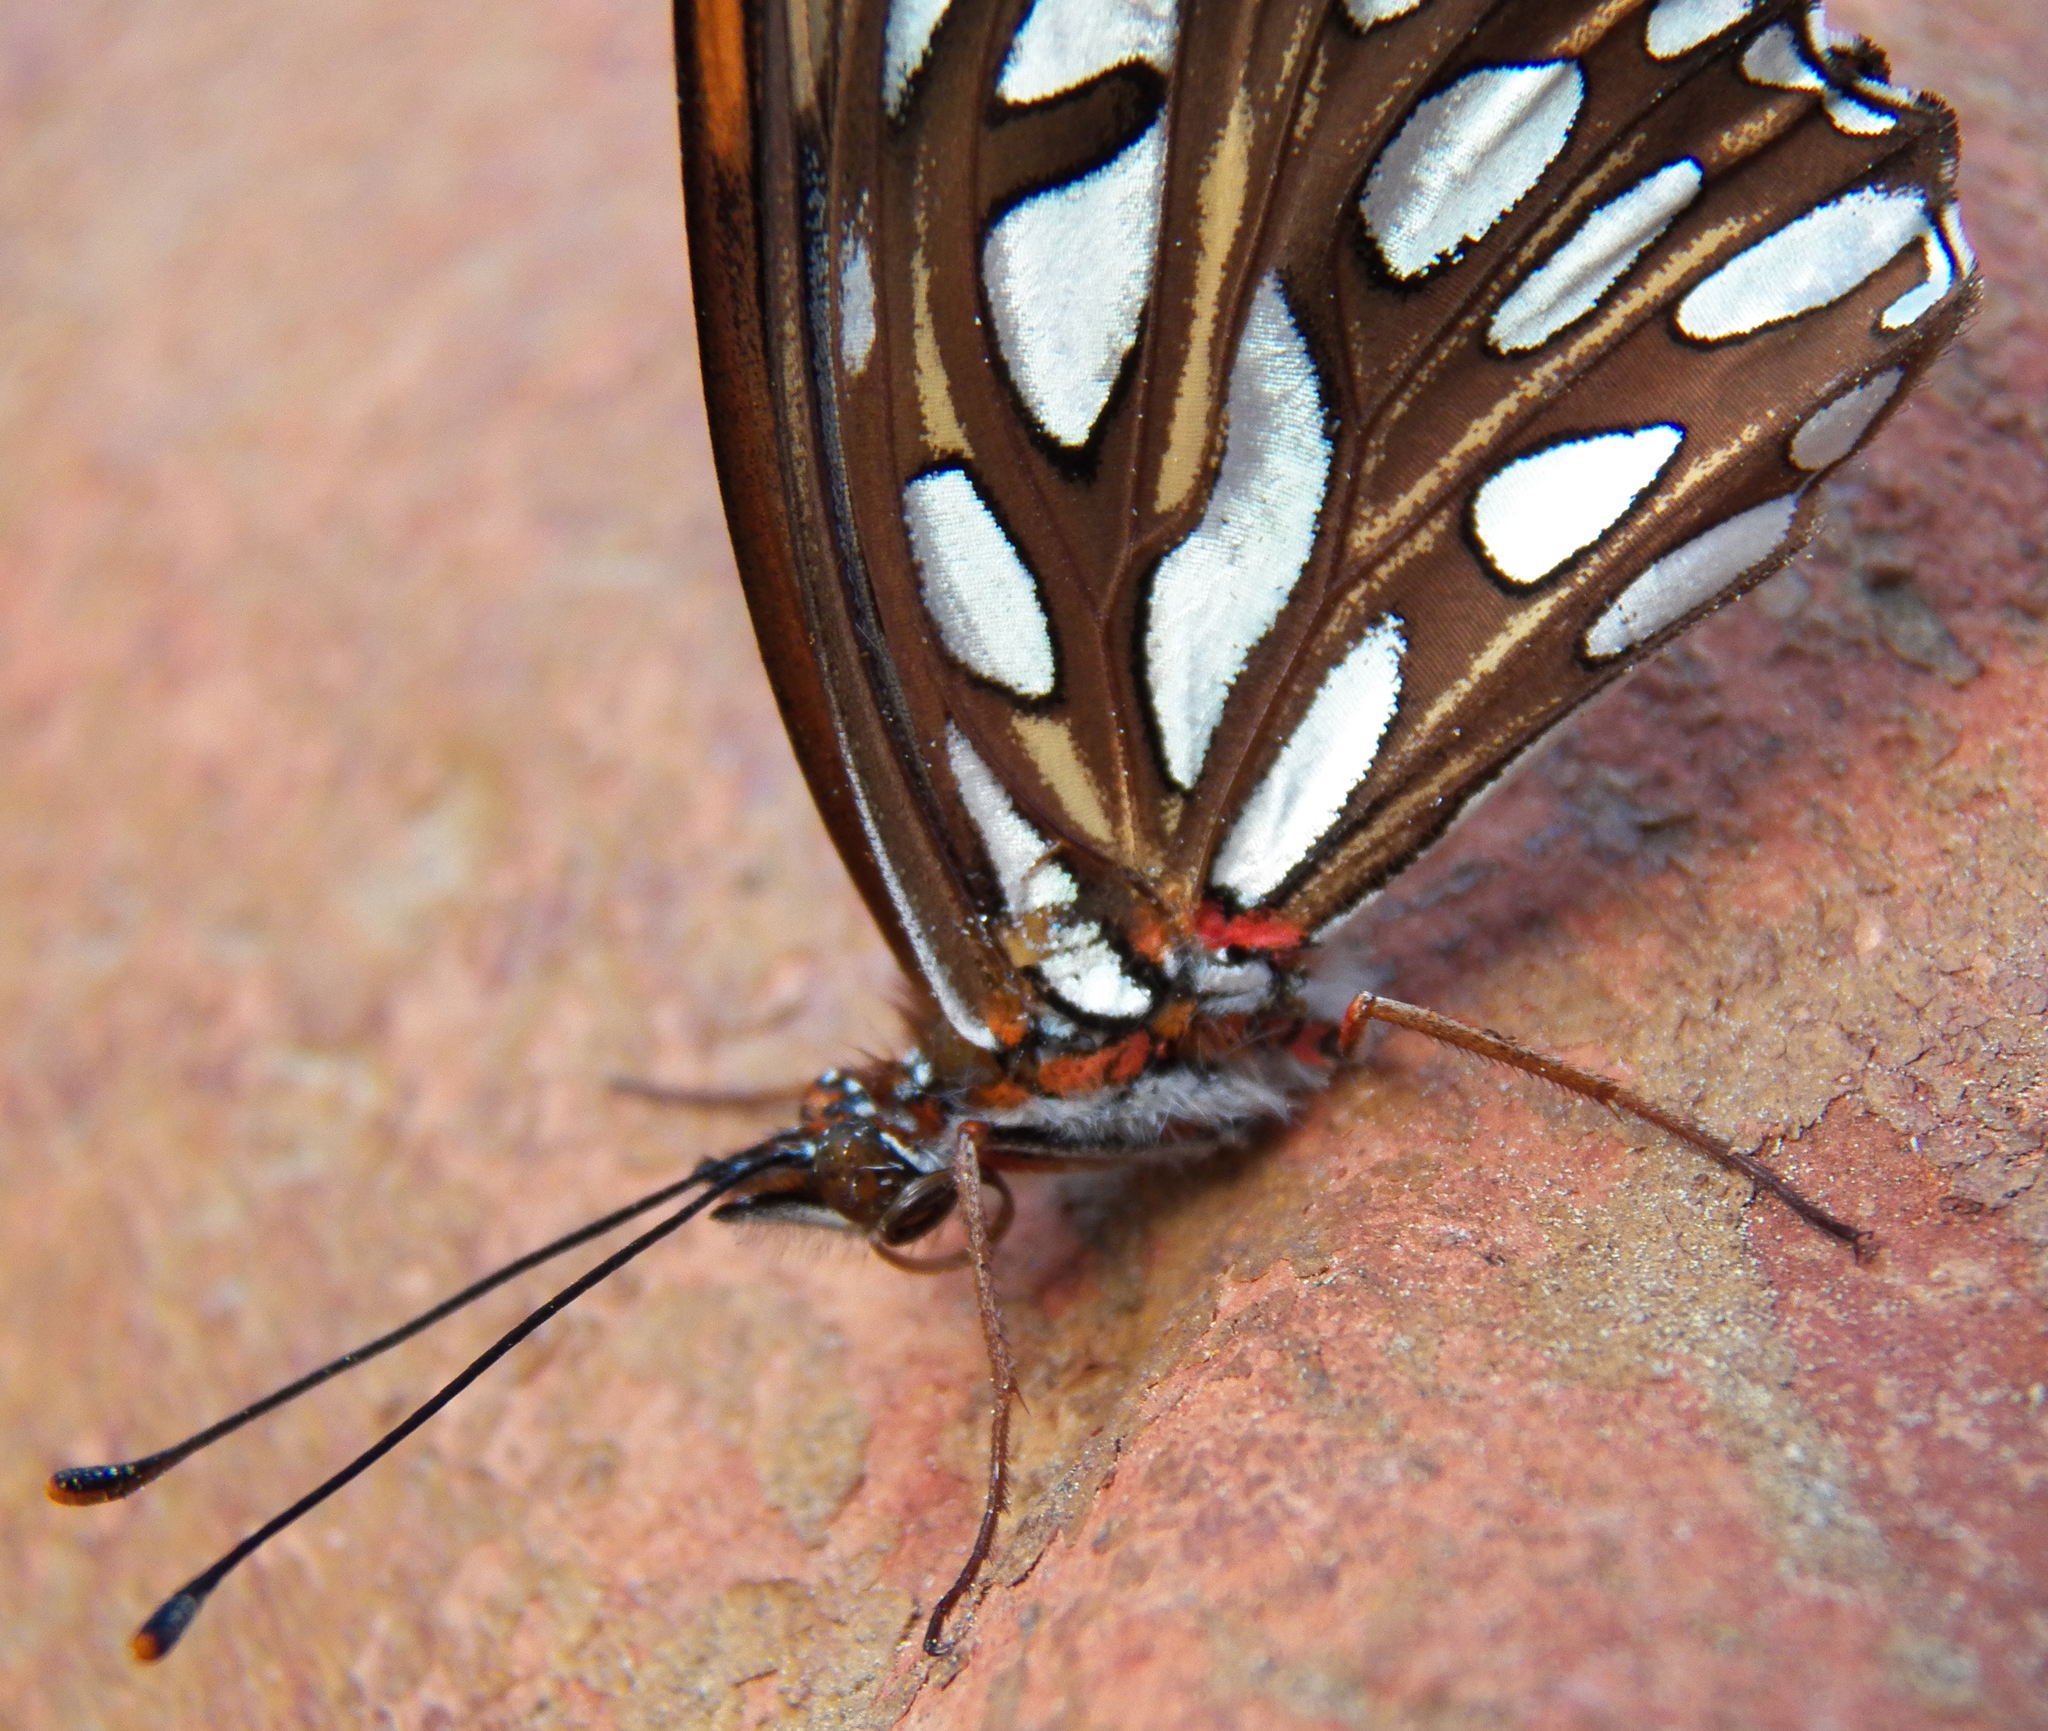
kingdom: Animalia
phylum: Arthropoda
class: Insecta
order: Lepidoptera
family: Nymphalidae
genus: Dione
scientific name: Dione vanillae
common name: Gulf fritillary
